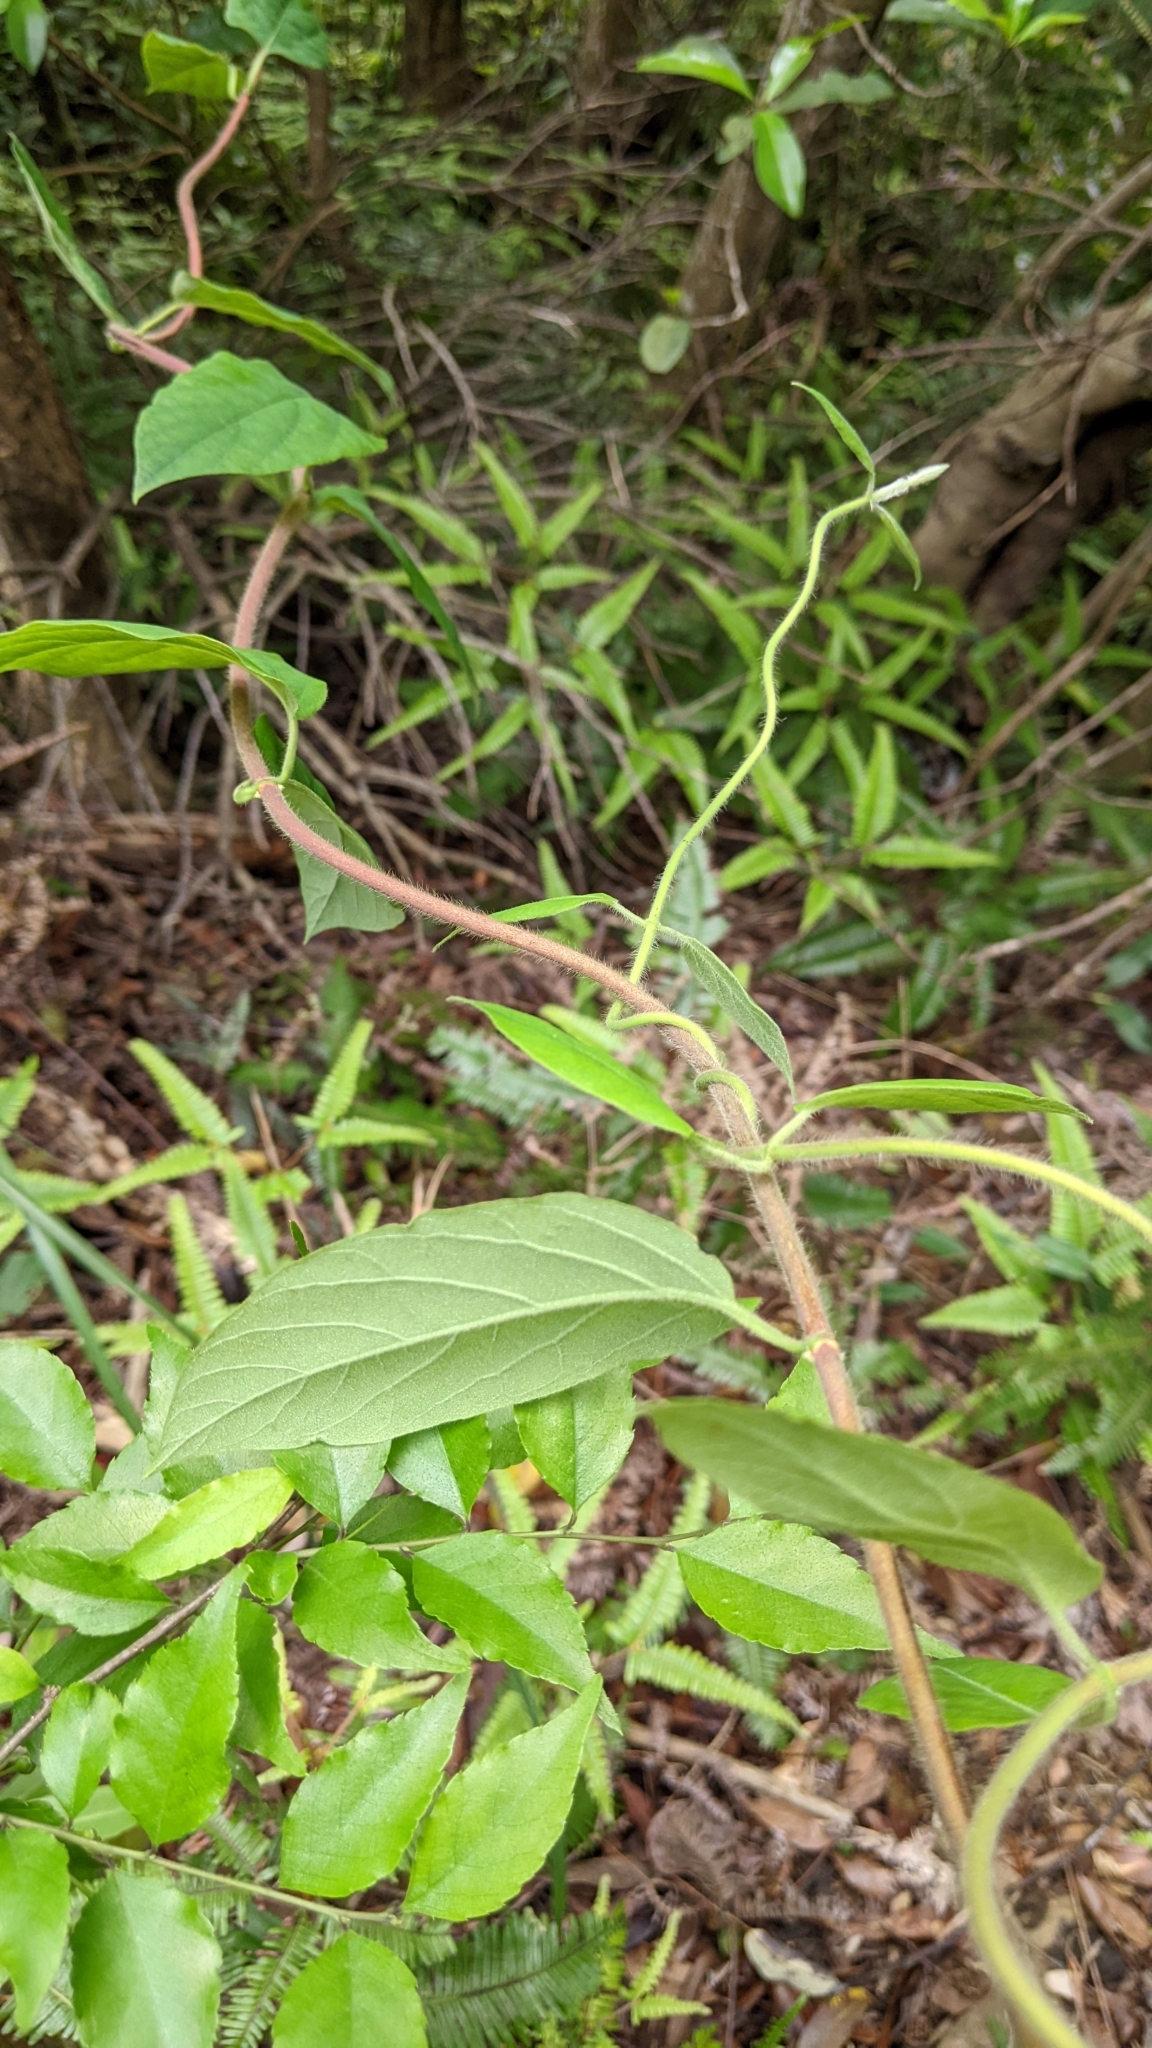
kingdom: Plantae
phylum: Tracheophyta
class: Magnoliopsida
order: Dipsacales
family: Caprifoliaceae
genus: Lonicera
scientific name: Lonicera hypoglauca
